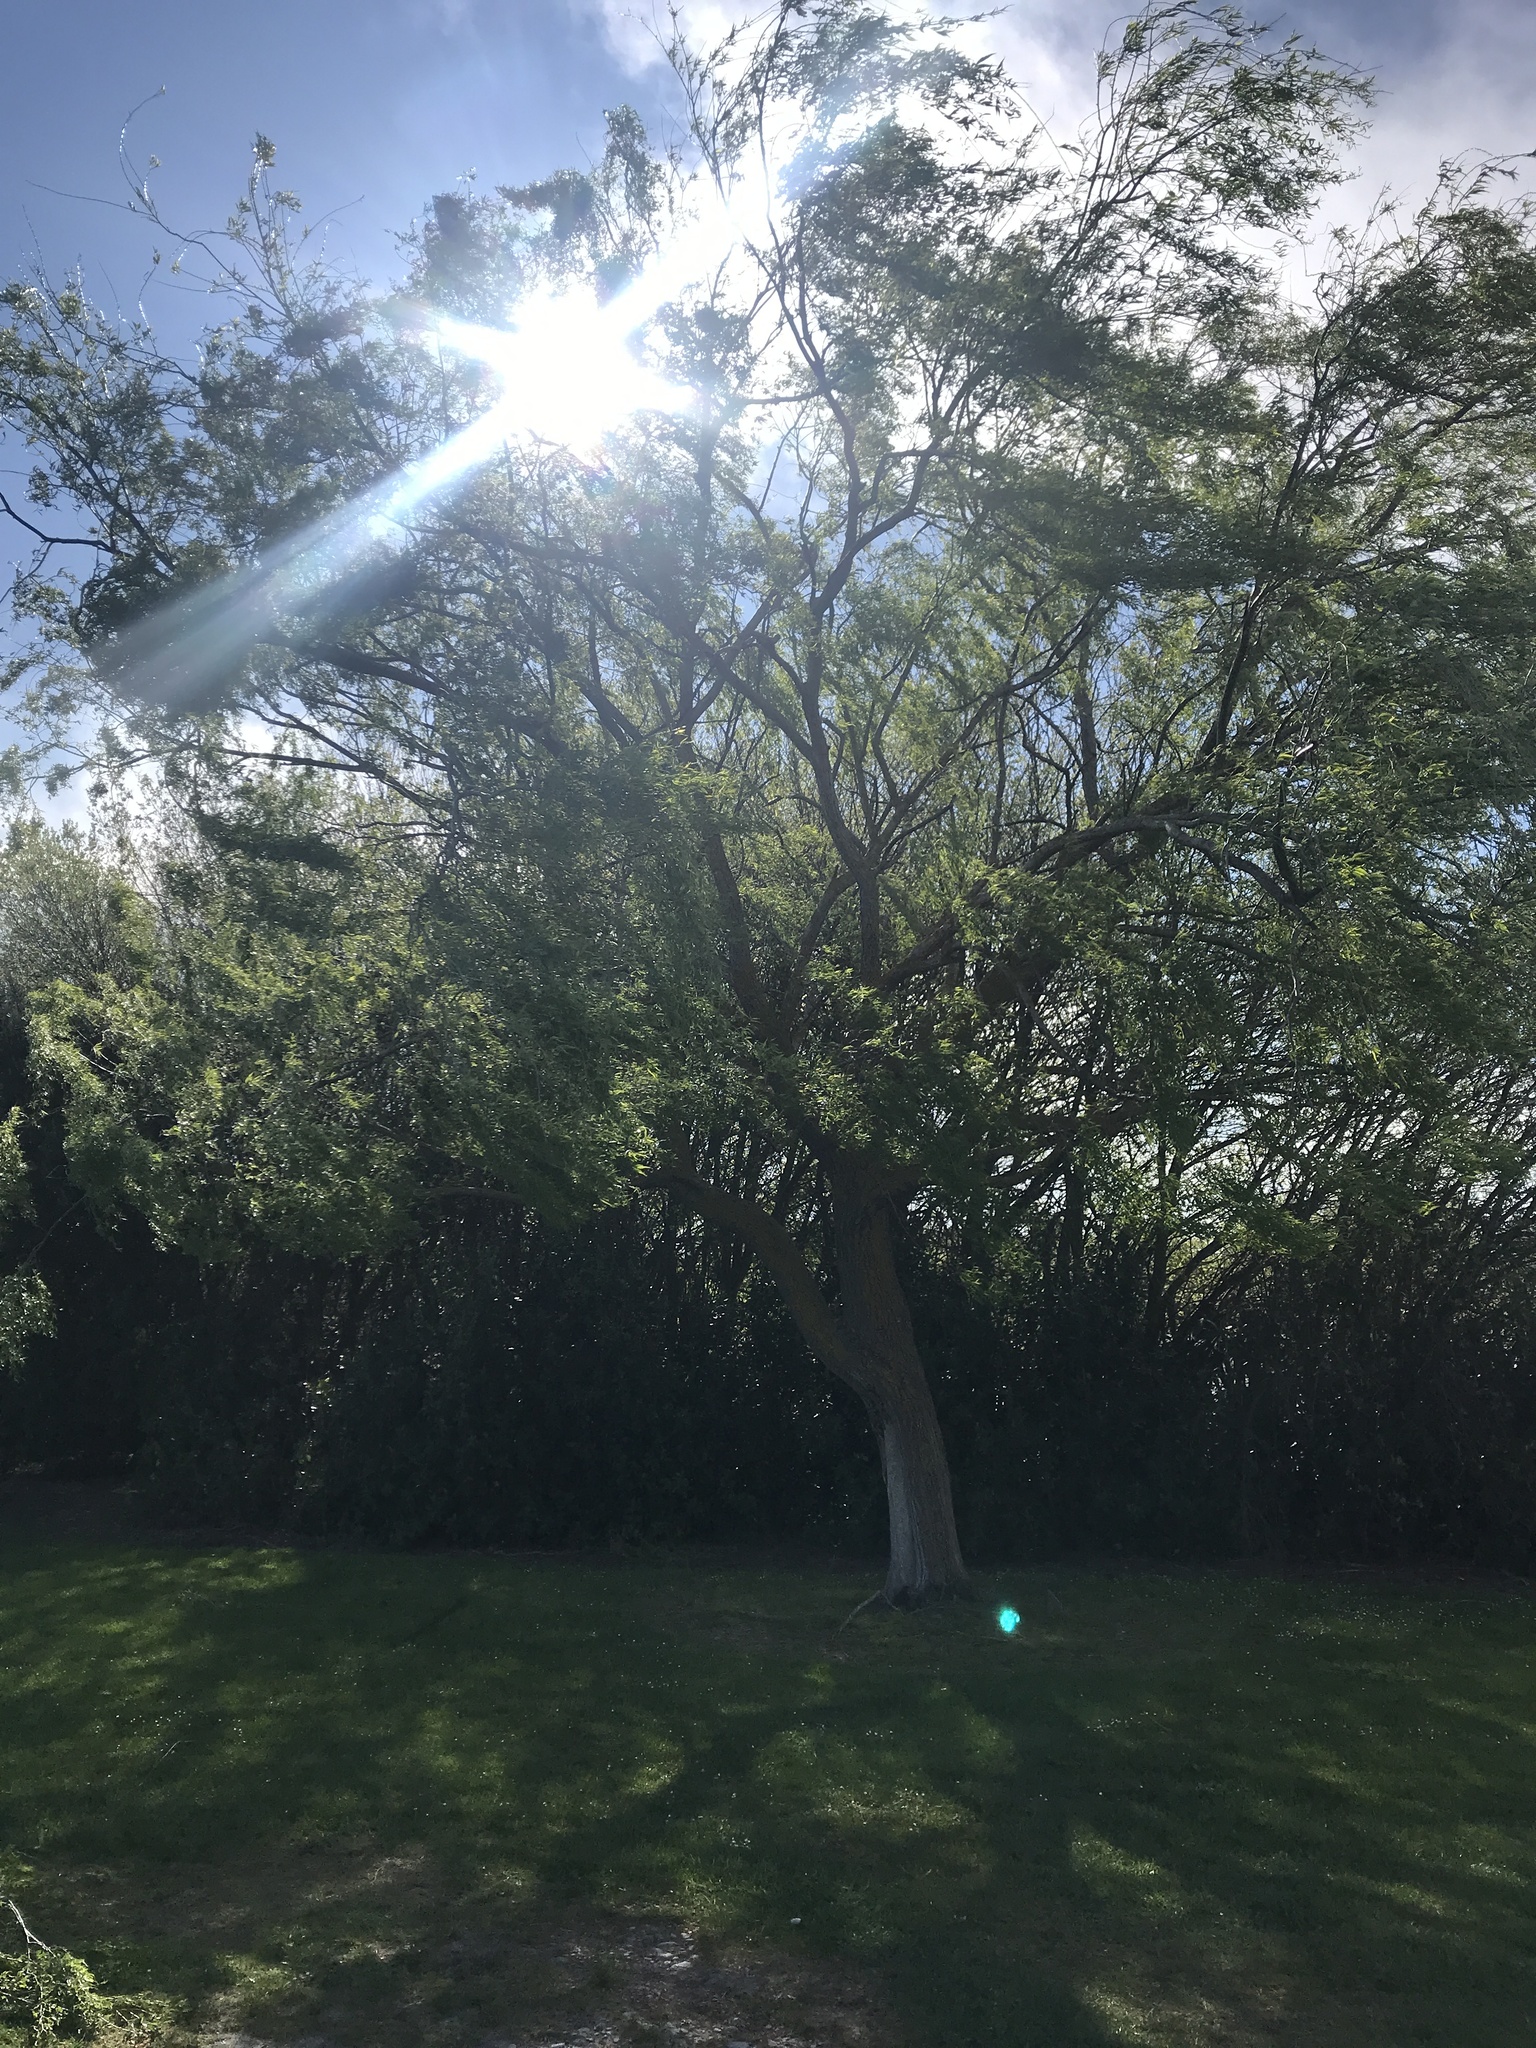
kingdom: Plantae
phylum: Tracheophyta
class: Magnoliopsida
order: Malpighiales
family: Salicaceae
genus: Salix
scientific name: Salix fragilis
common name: Crack willow
